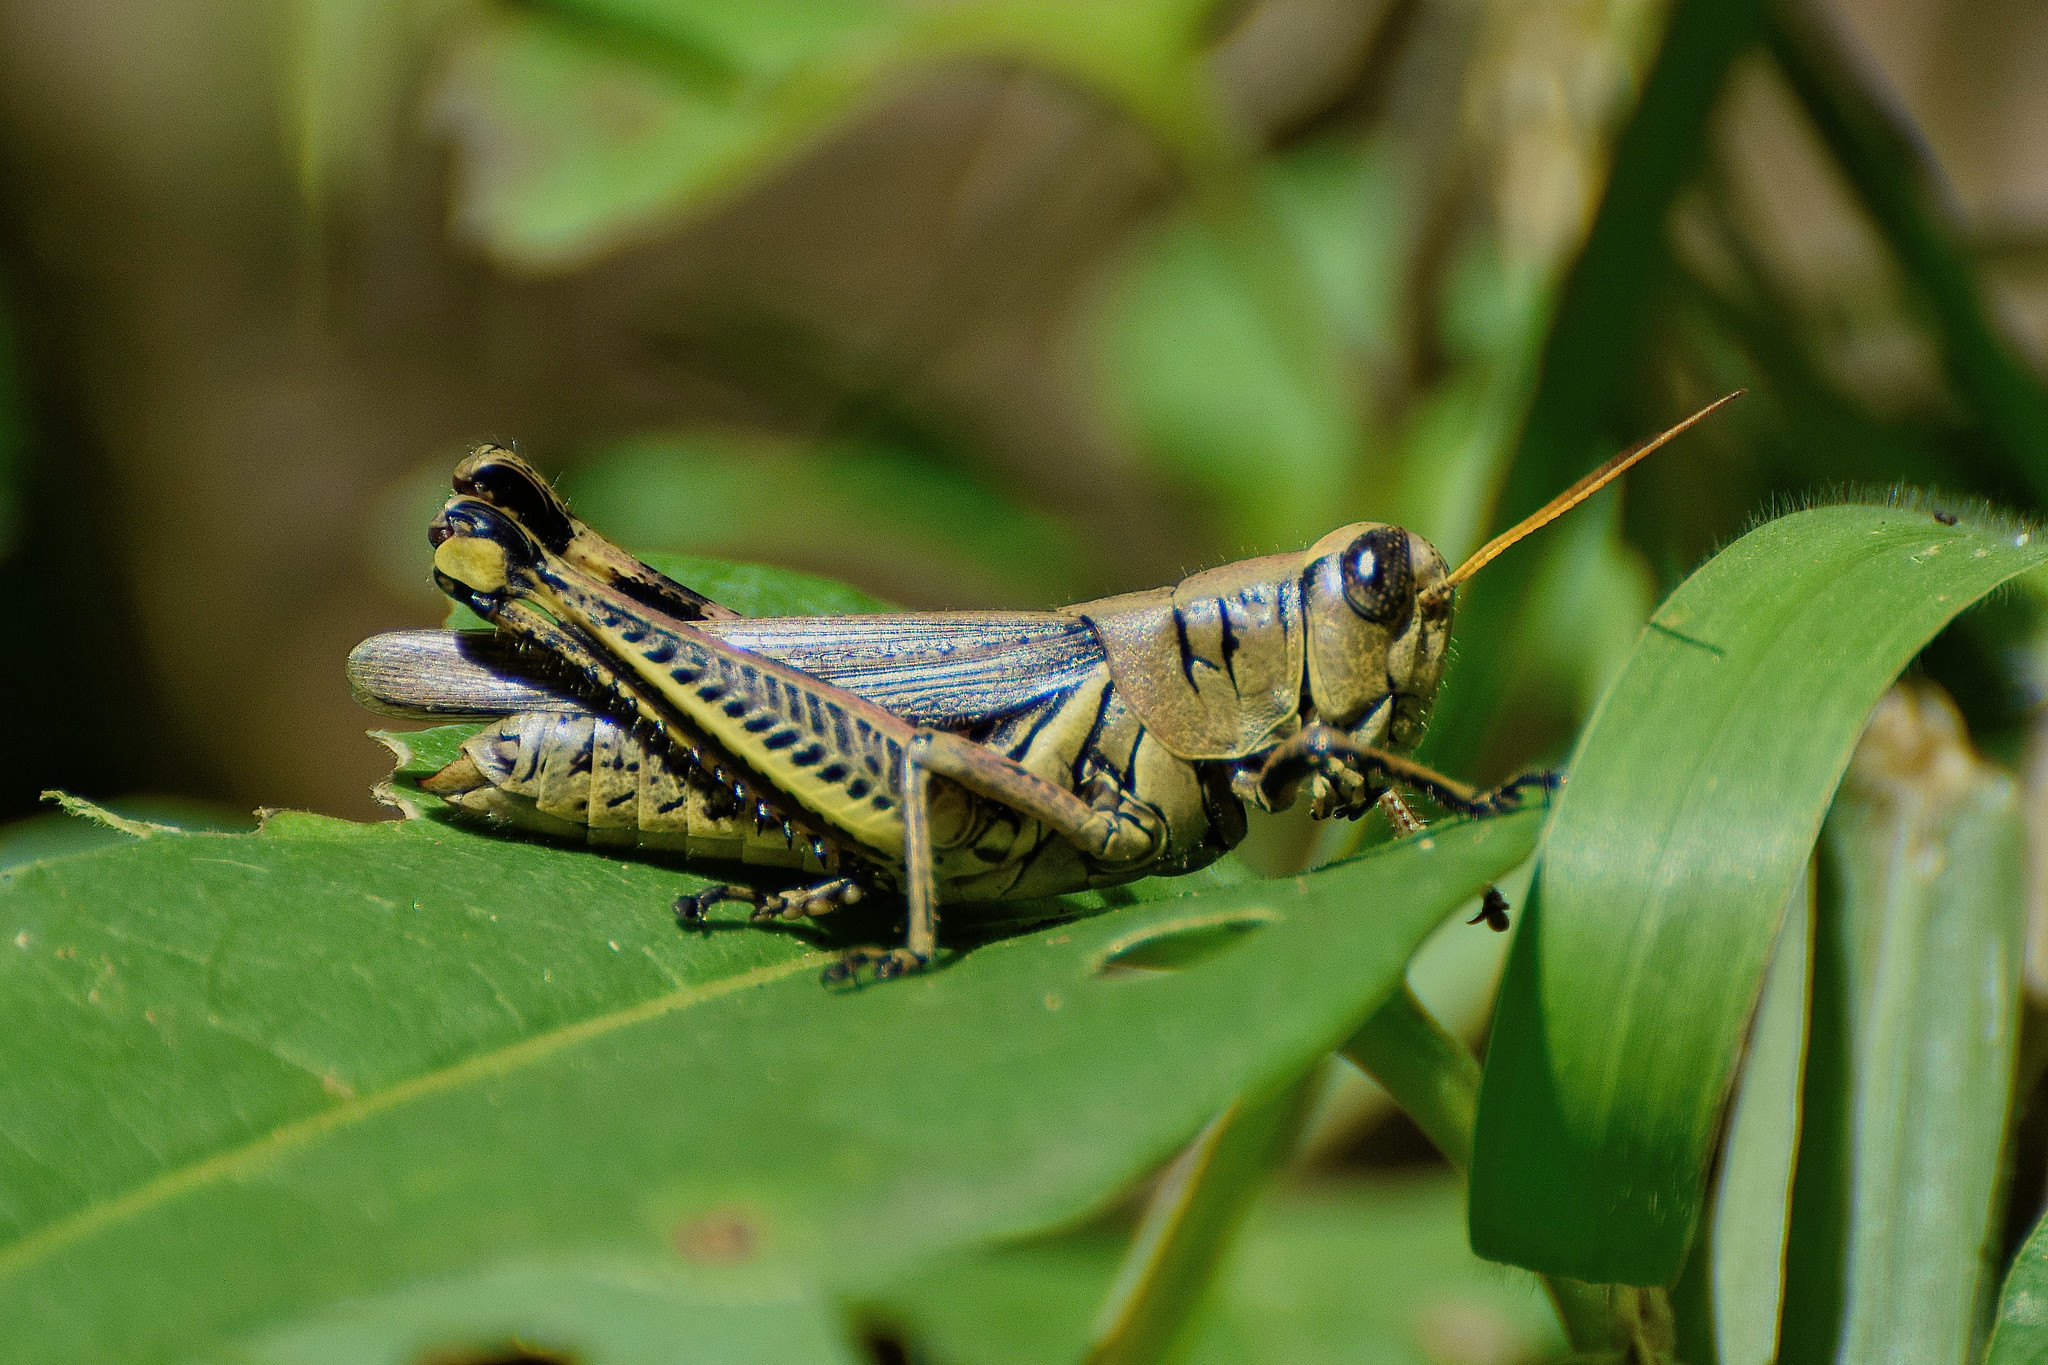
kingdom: Animalia
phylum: Arthropoda
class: Insecta
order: Orthoptera
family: Acrididae
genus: Melanoplus
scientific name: Melanoplus differentialis
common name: Differential grasshopper
